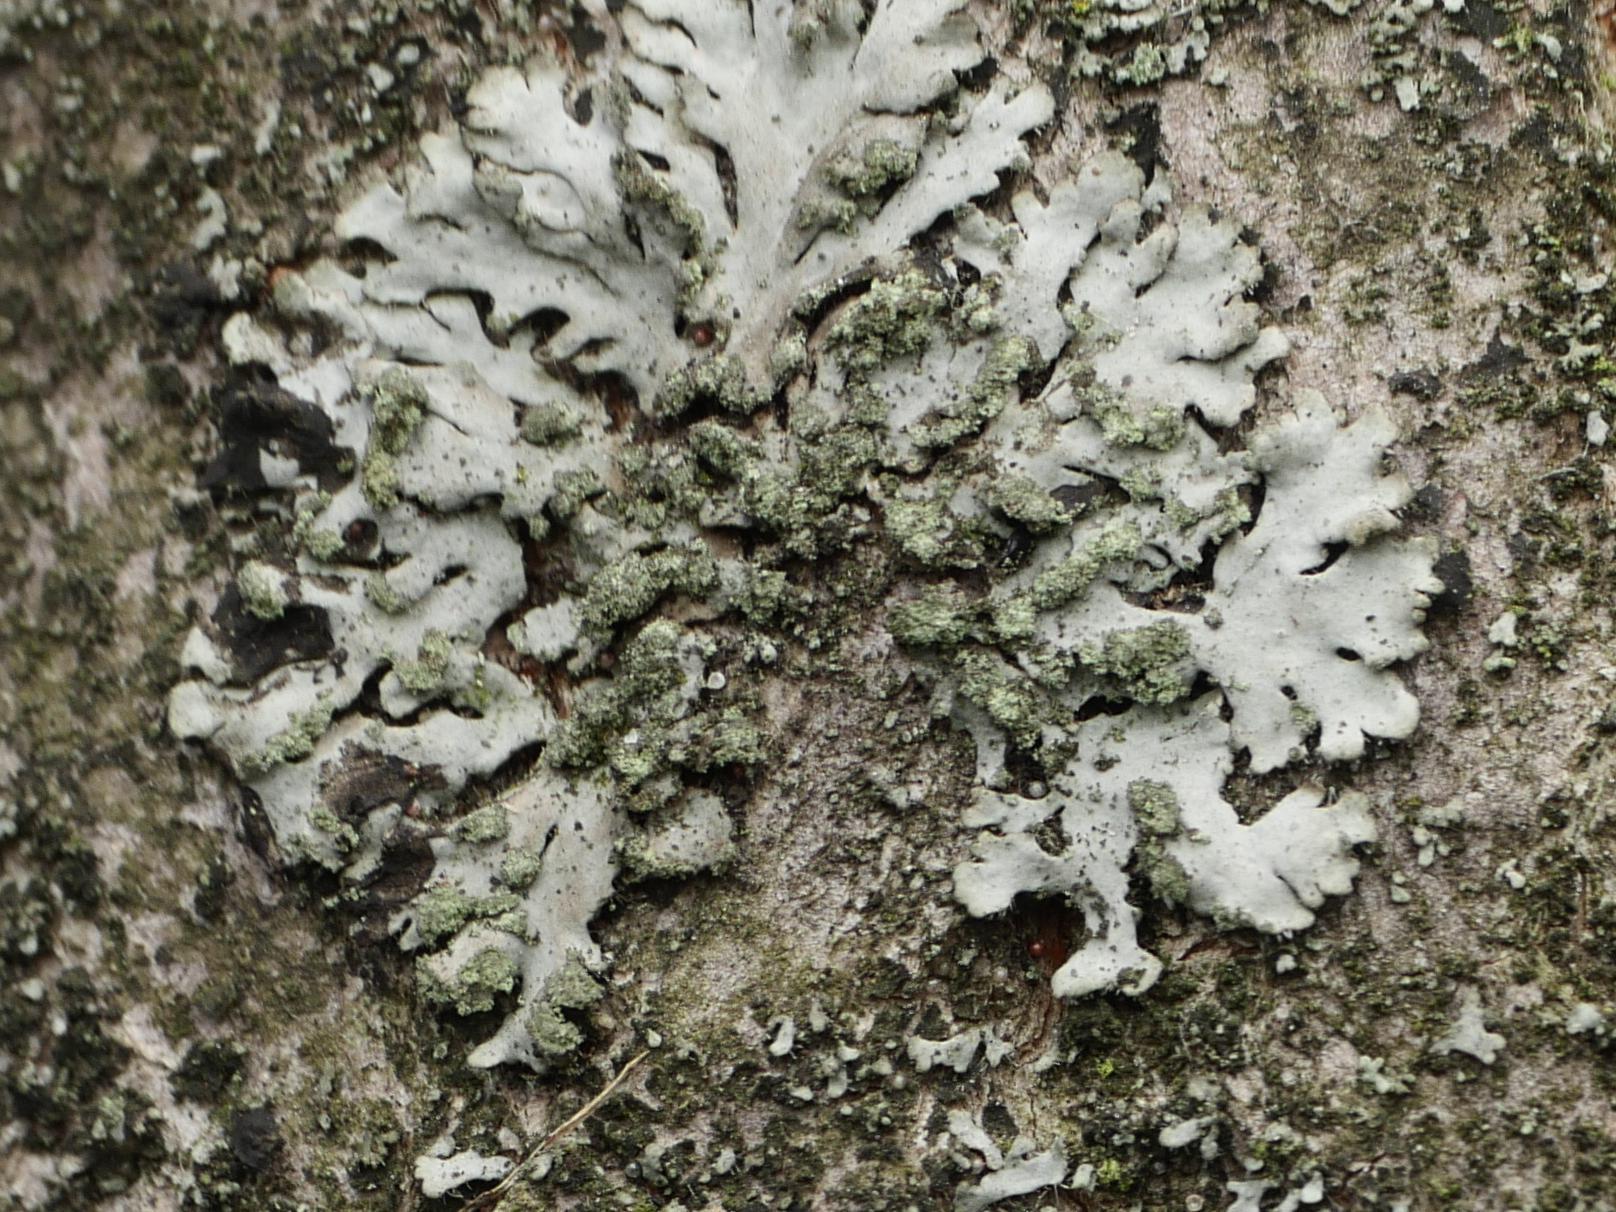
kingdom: Fungi
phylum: Ascomycota
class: Lecanoromycetes
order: Caliciales
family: Physciaceae
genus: Phaeophyscia
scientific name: Phaeophyscia orbicularis
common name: Mealy shadow lichen
